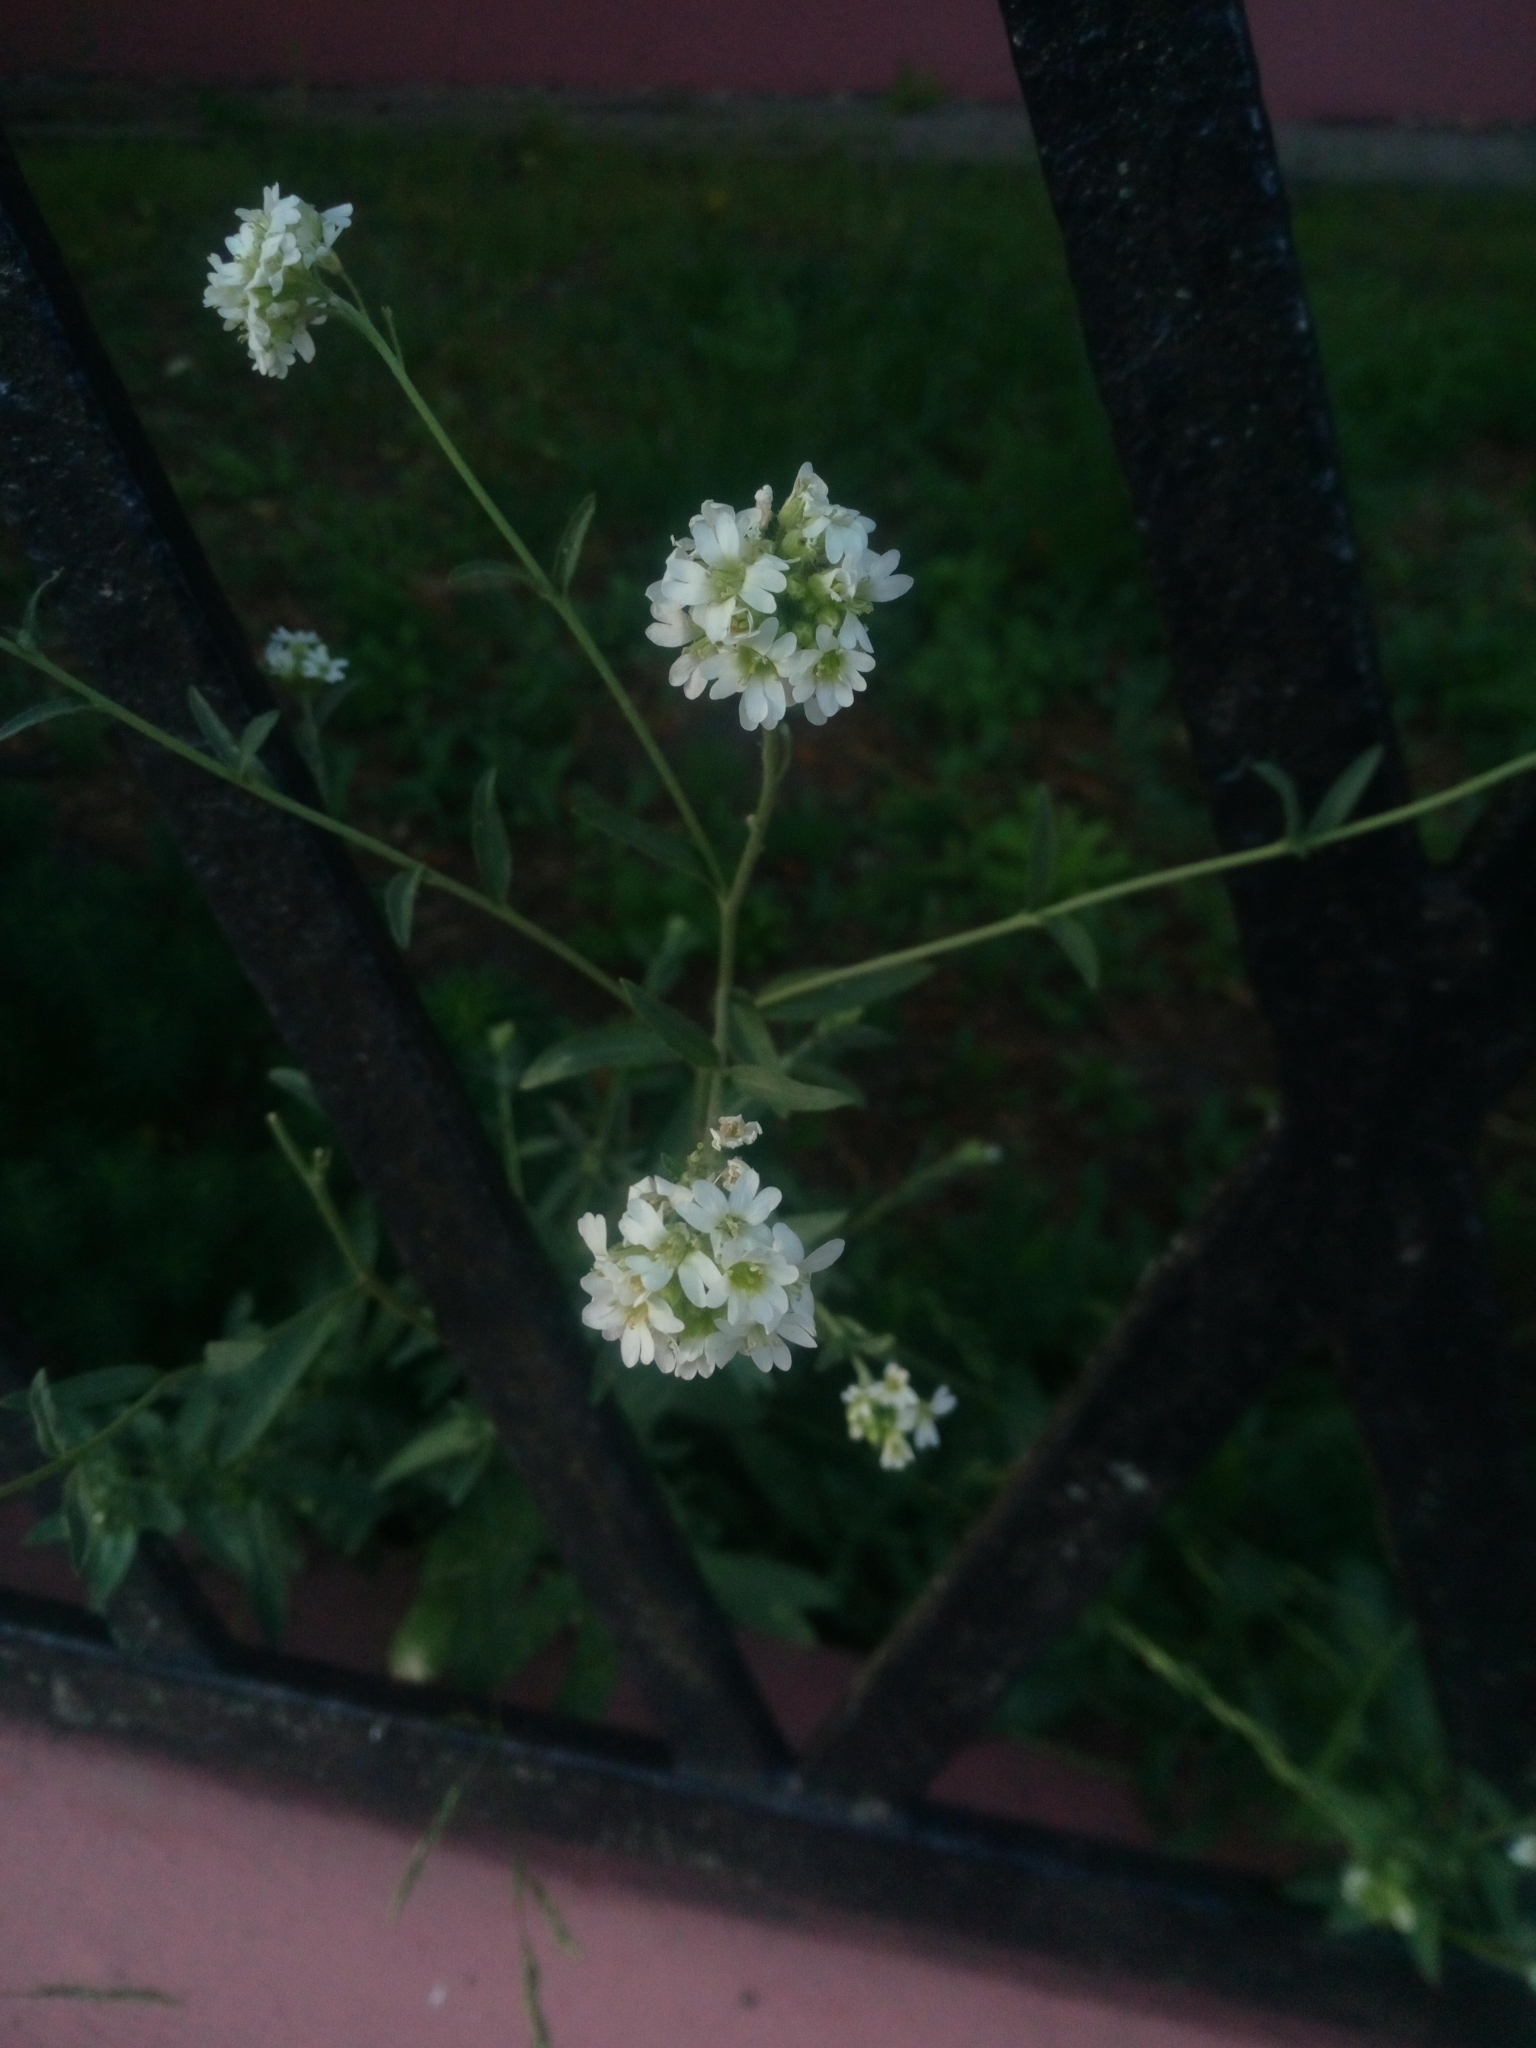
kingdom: Plantae
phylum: Tracheophyta
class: Magnoliopsida
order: Brassicales
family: Brassicaceae
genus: Berteroa
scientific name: Berteroa incana
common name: Hoary alison
